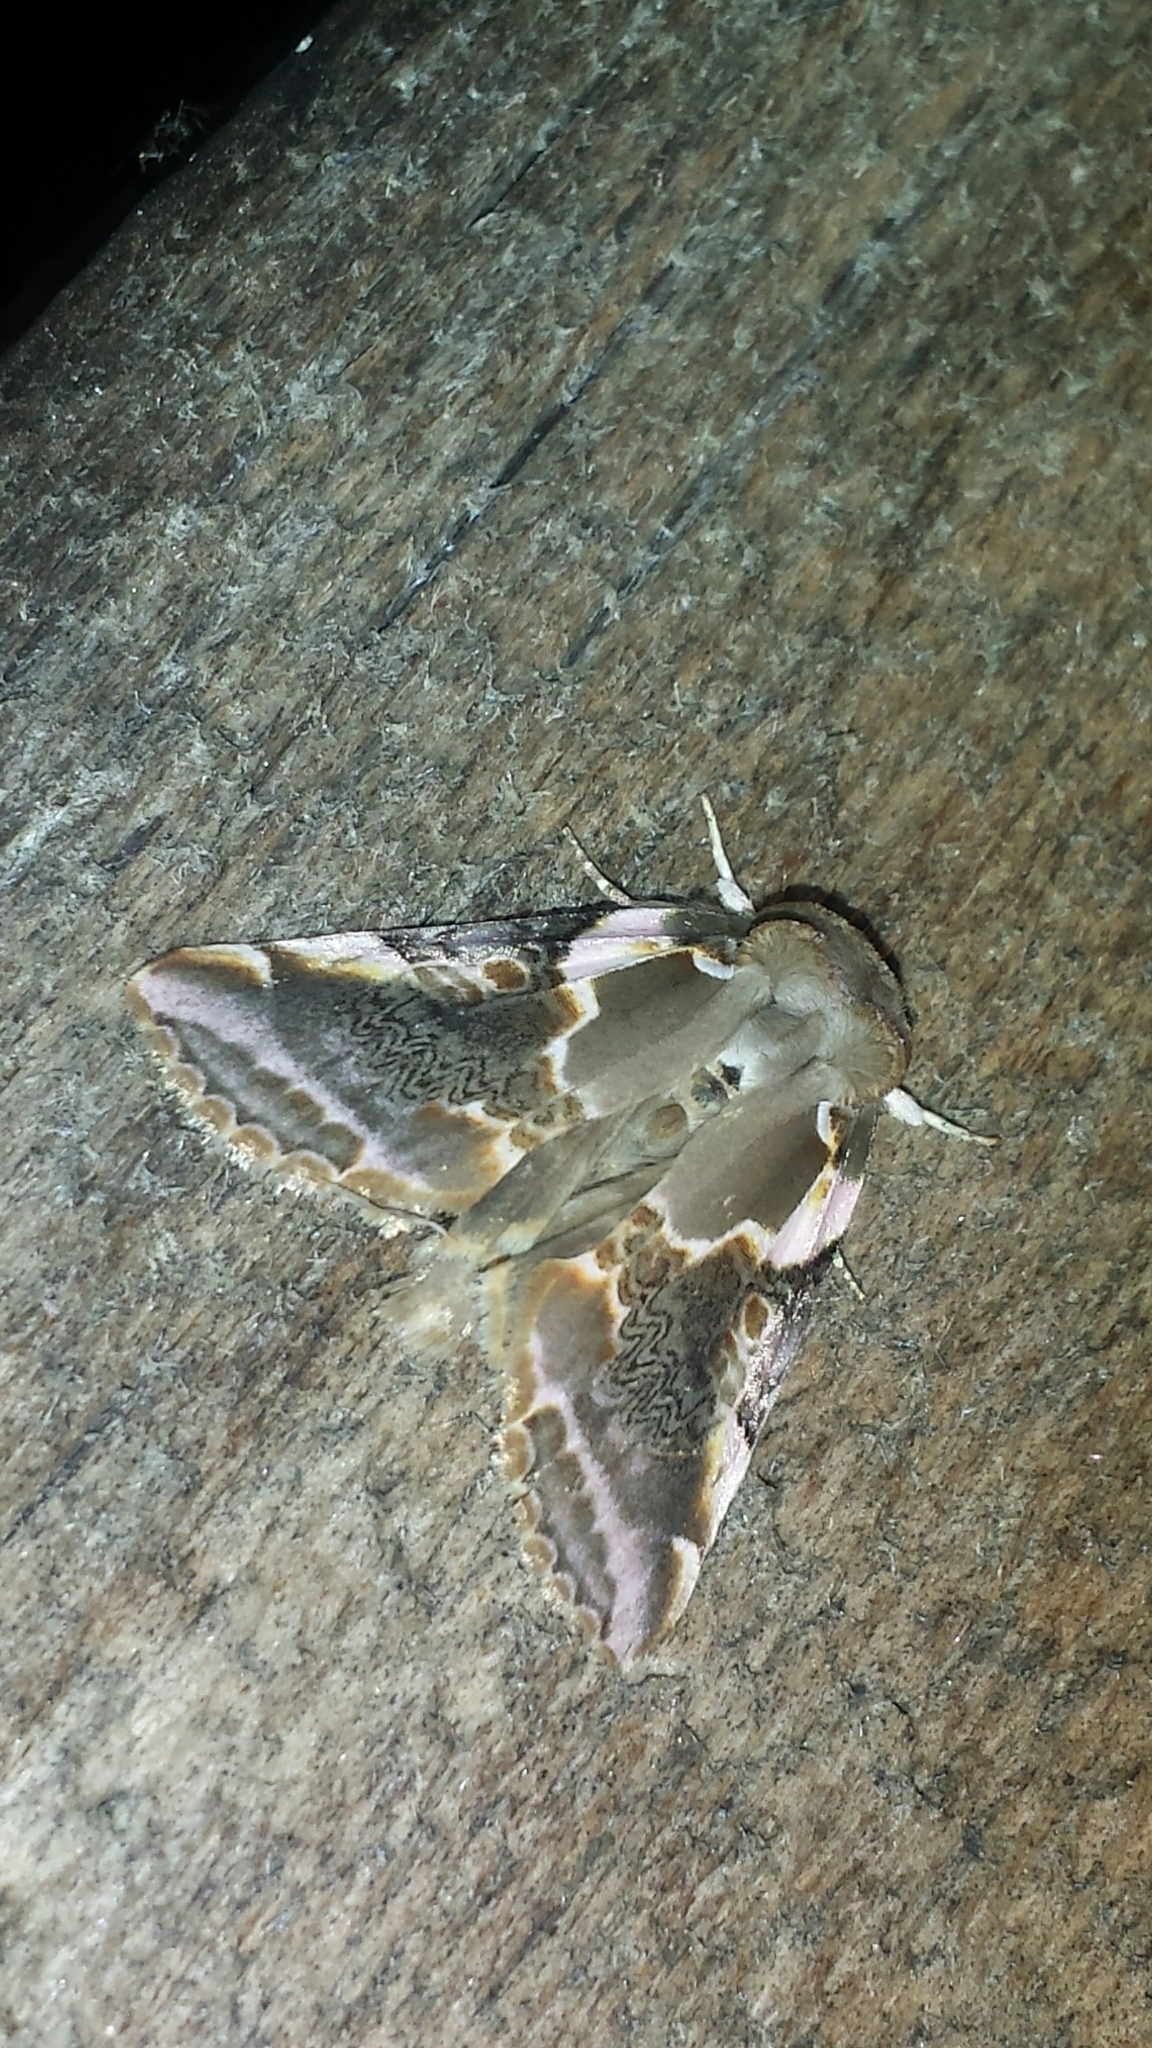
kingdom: Animalia
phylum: Arthropoda
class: Insecta
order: Lepidoptera
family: Drepanidae
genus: Habrosyne
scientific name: Habrosyne gloriosa
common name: Glorious habrosyne moth
